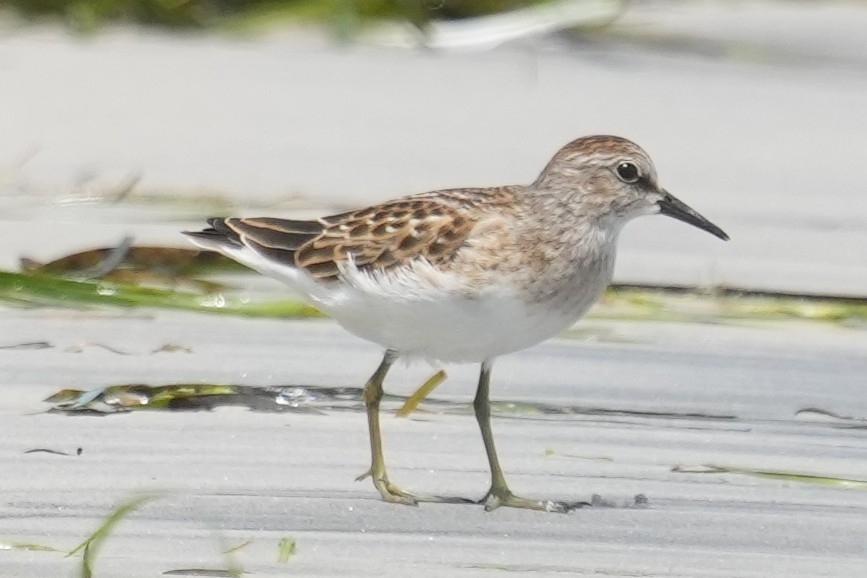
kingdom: Animalia
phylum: Chordata
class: Aves
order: Charadriiformes
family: Scolopacidae
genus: Calidris
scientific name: Calidris minutilla
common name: Least sandpiper
